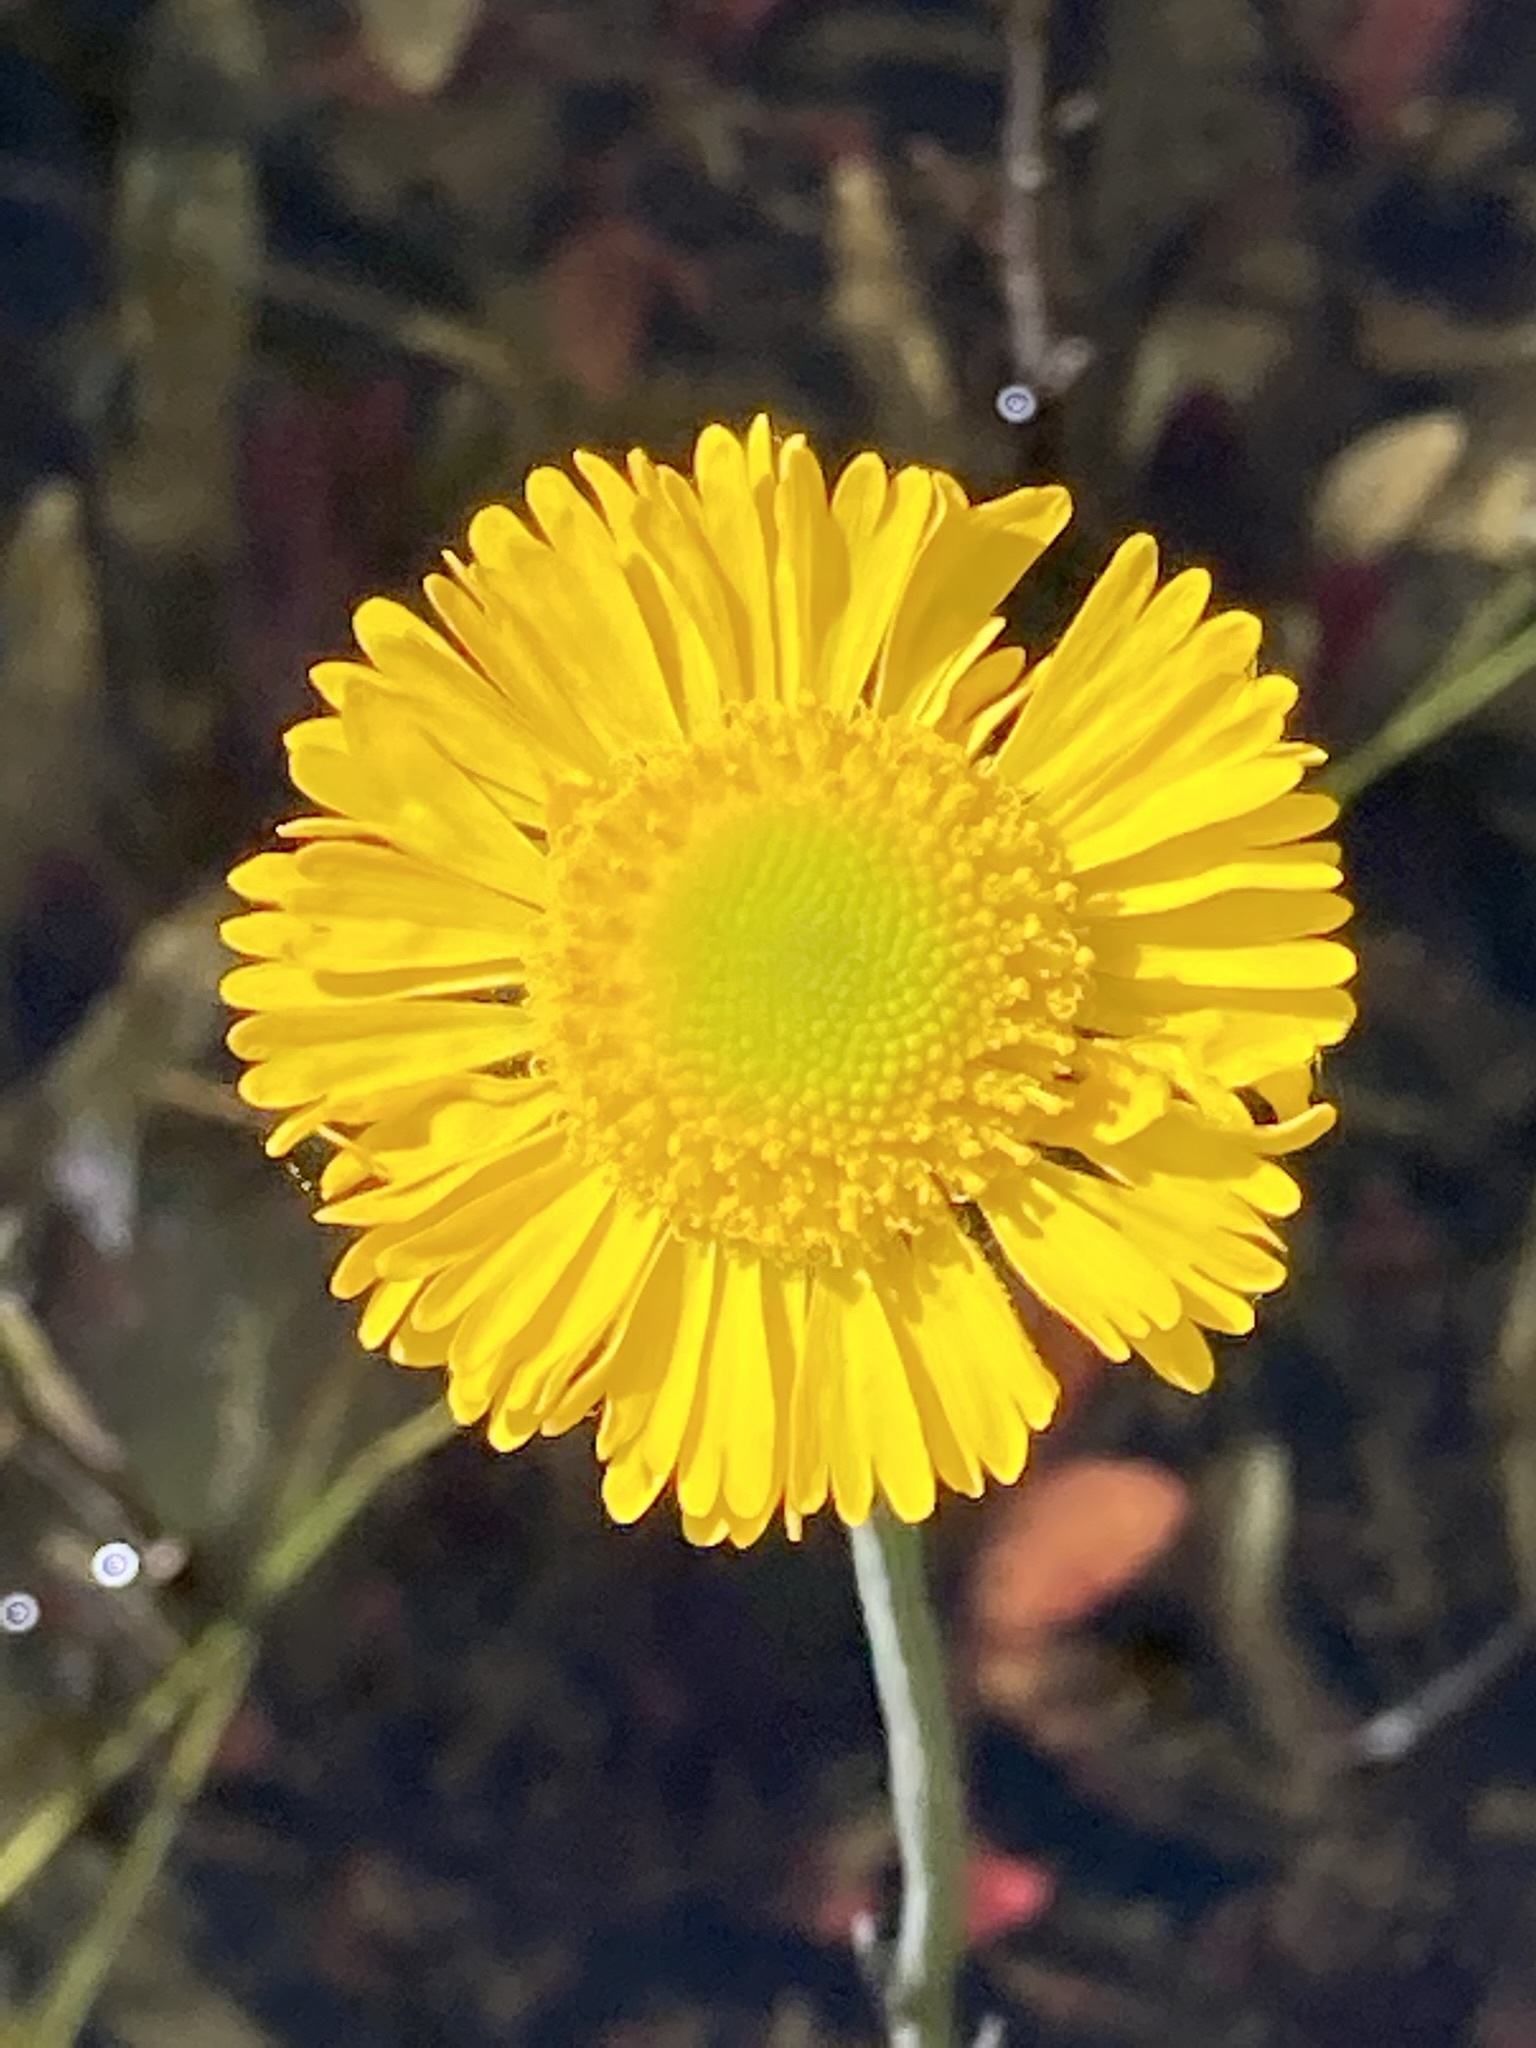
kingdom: Plantae
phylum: Tracheophyta
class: Magnoliopsida
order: Asterales
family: Asteraceae
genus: Helenium
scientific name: Helenium pinnatifidum
